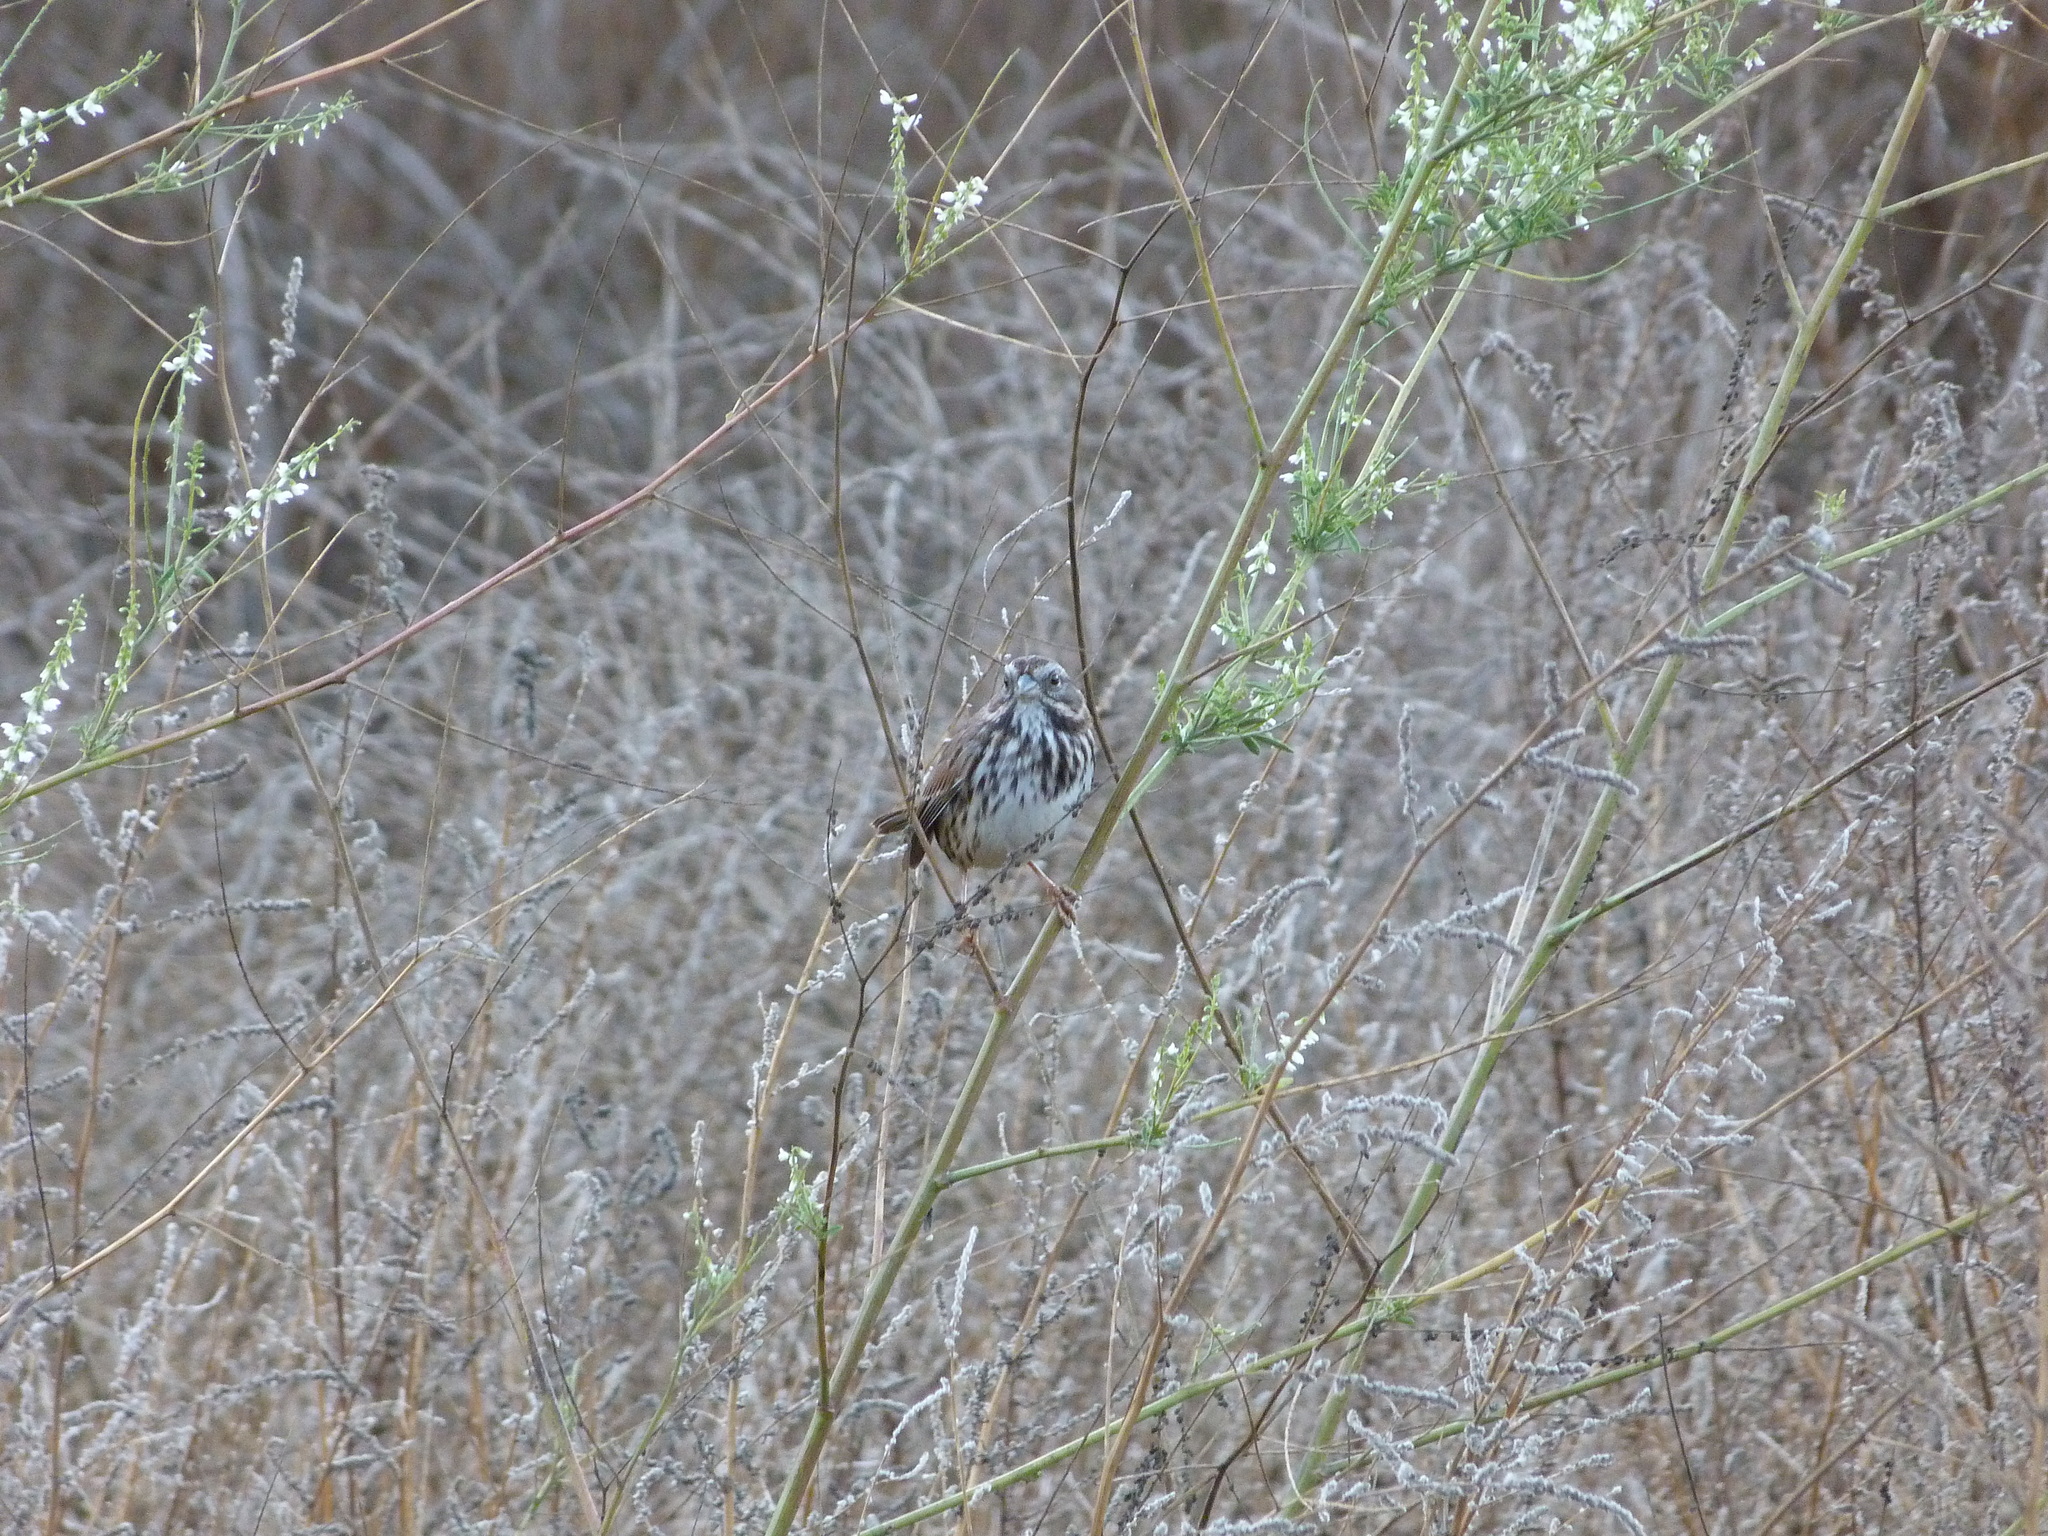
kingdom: Animalia
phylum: Chordata
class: Aves
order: Passeriformes
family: Passerellidae
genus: Melospiza
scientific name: Melospiza melodia
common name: Song sparrow
